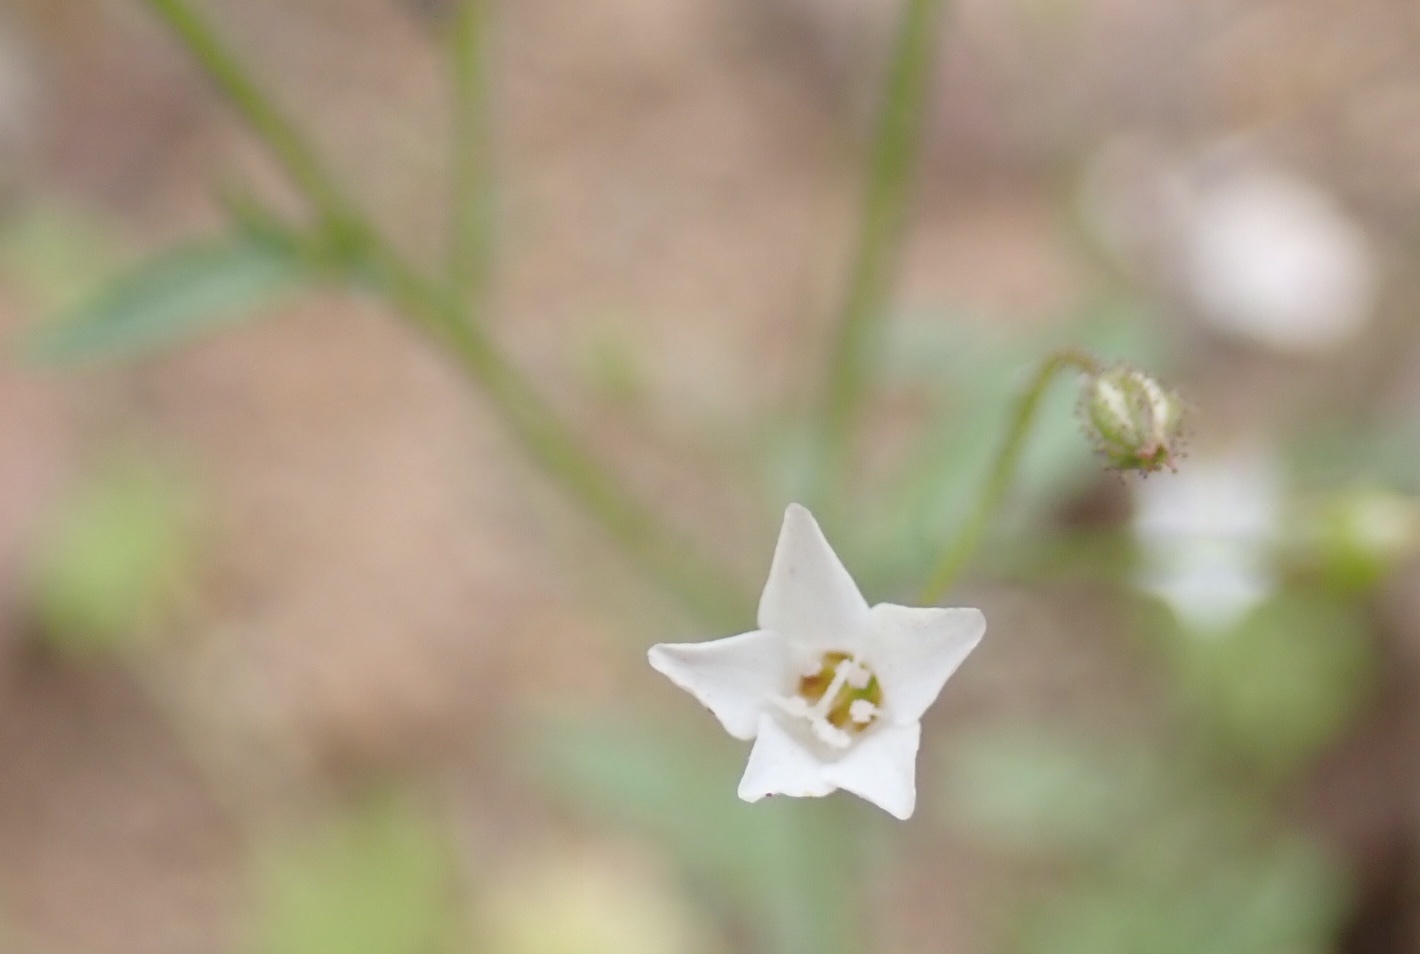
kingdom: Plantae
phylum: Tracheophyta
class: Magnoliopsida
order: Ericales
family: Polemoniaceae
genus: Gilia
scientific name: Gilia stellata
